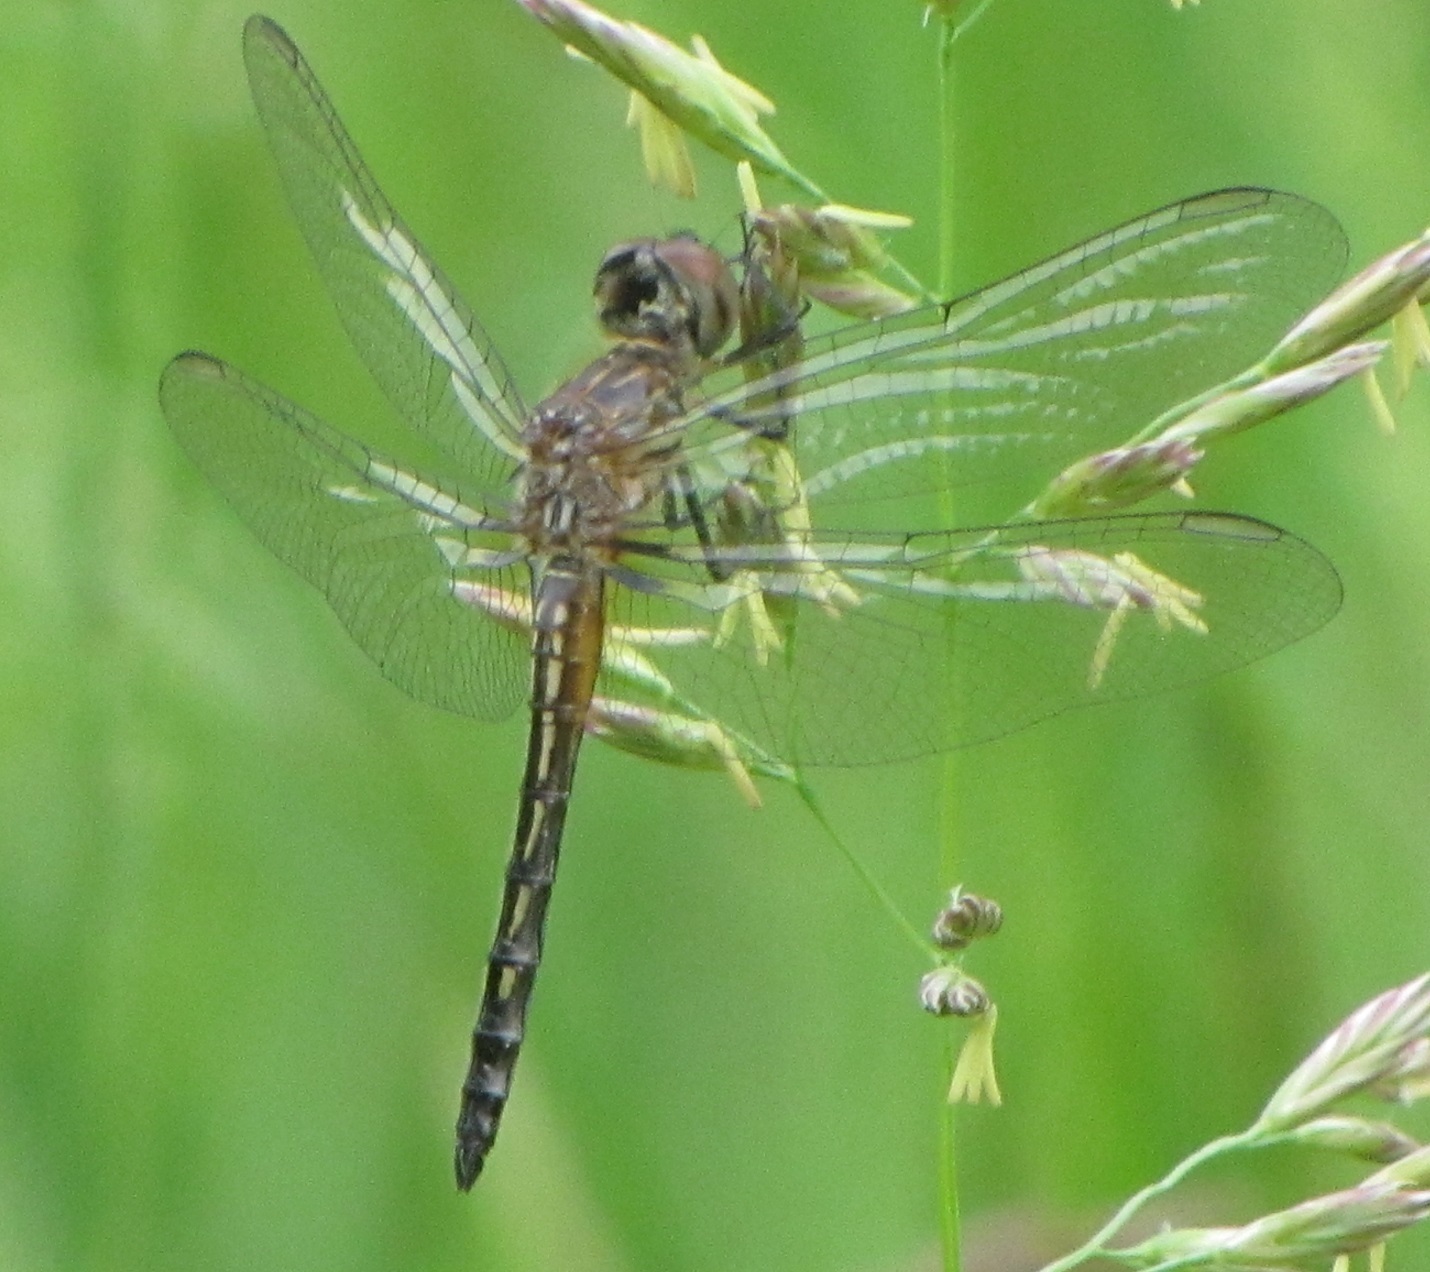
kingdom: Animalia
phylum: Arthropoda
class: Insecta
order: Odonata
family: Libellulidae
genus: Pachydiplax
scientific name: Pachydiplax longipennis
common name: Blue dasher
